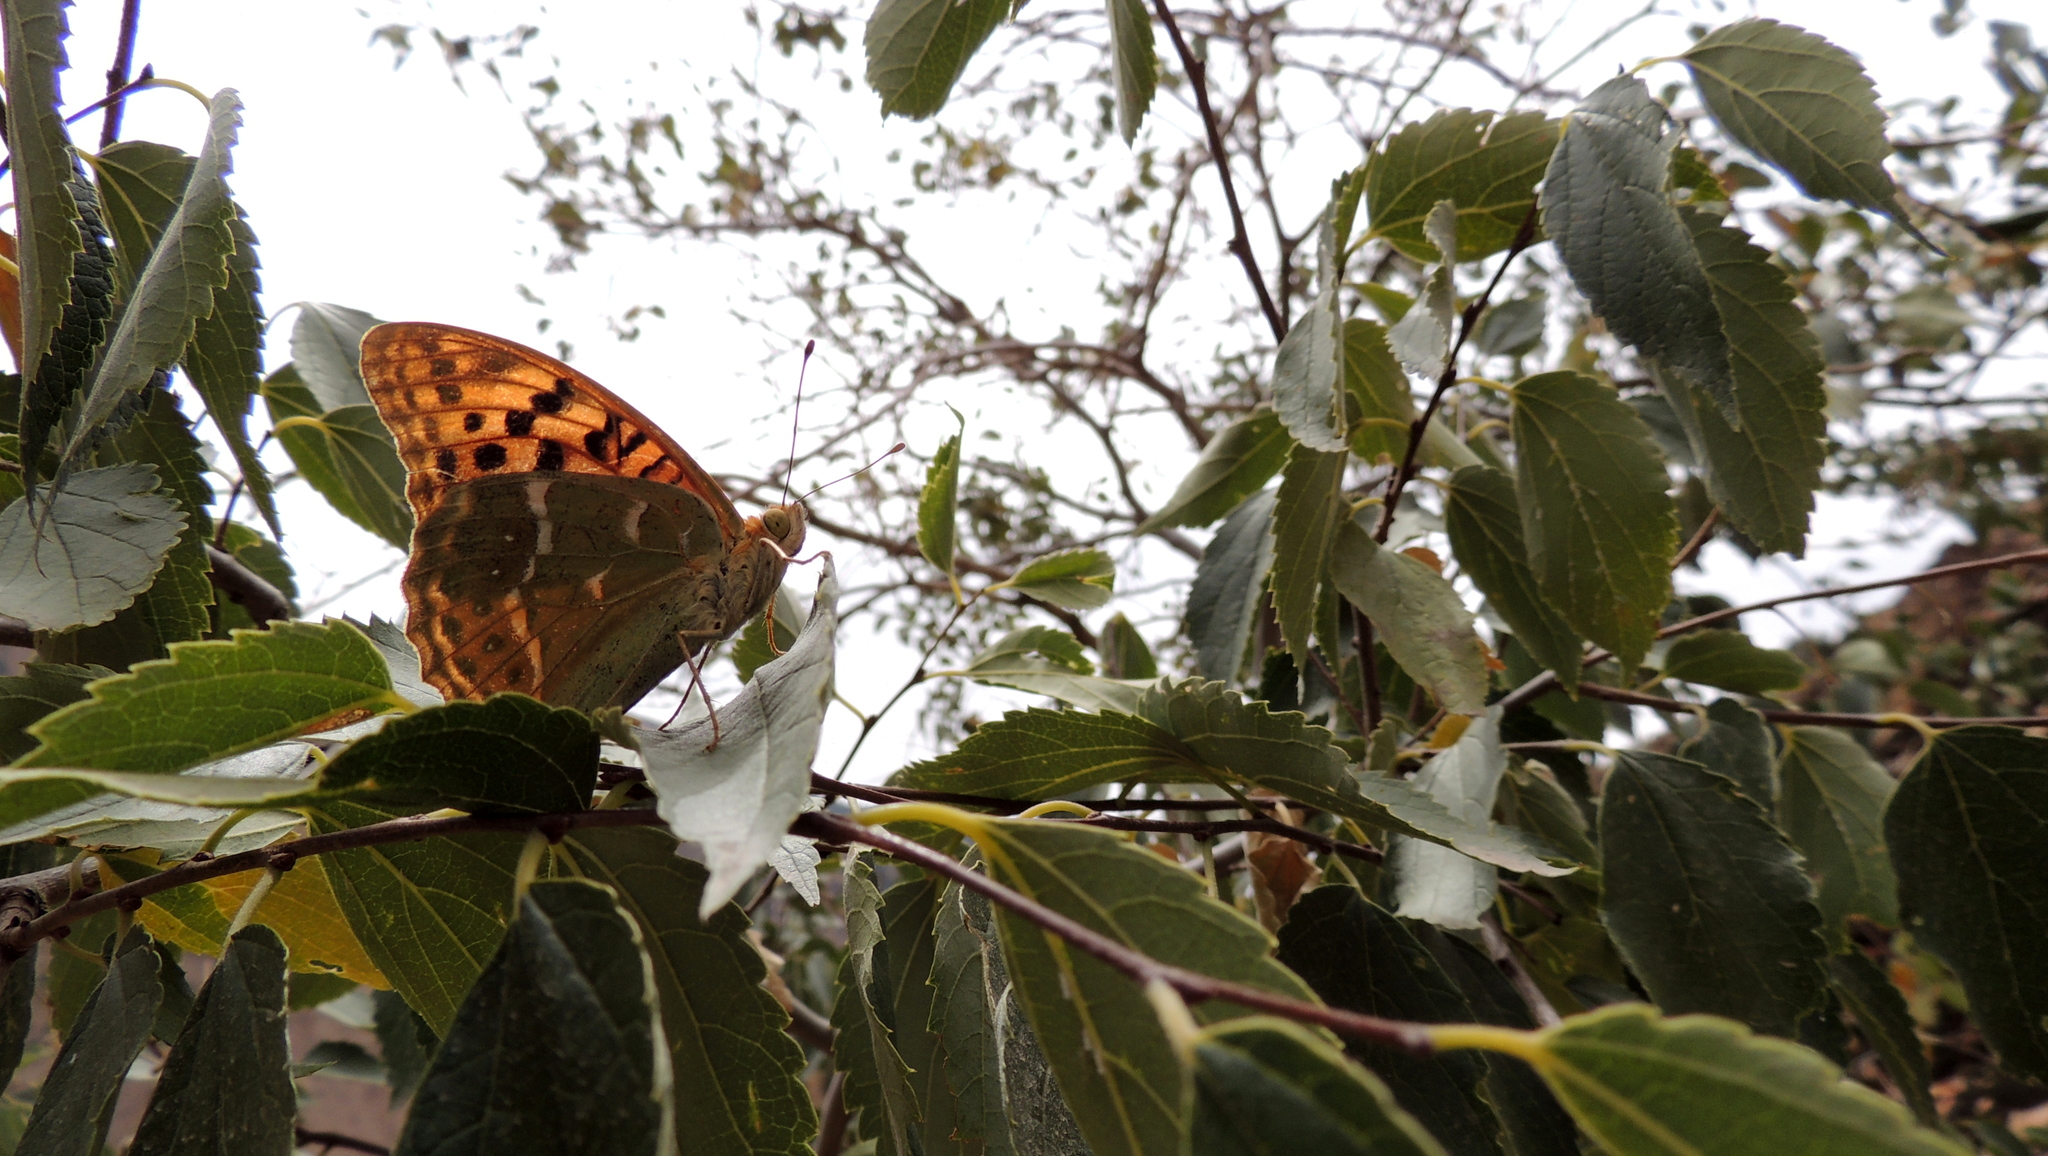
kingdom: Animalia
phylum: Arthropoda
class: Insecta
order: Lepidoptera
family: Nymphalidae
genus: Damora
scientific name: Damora pandora
